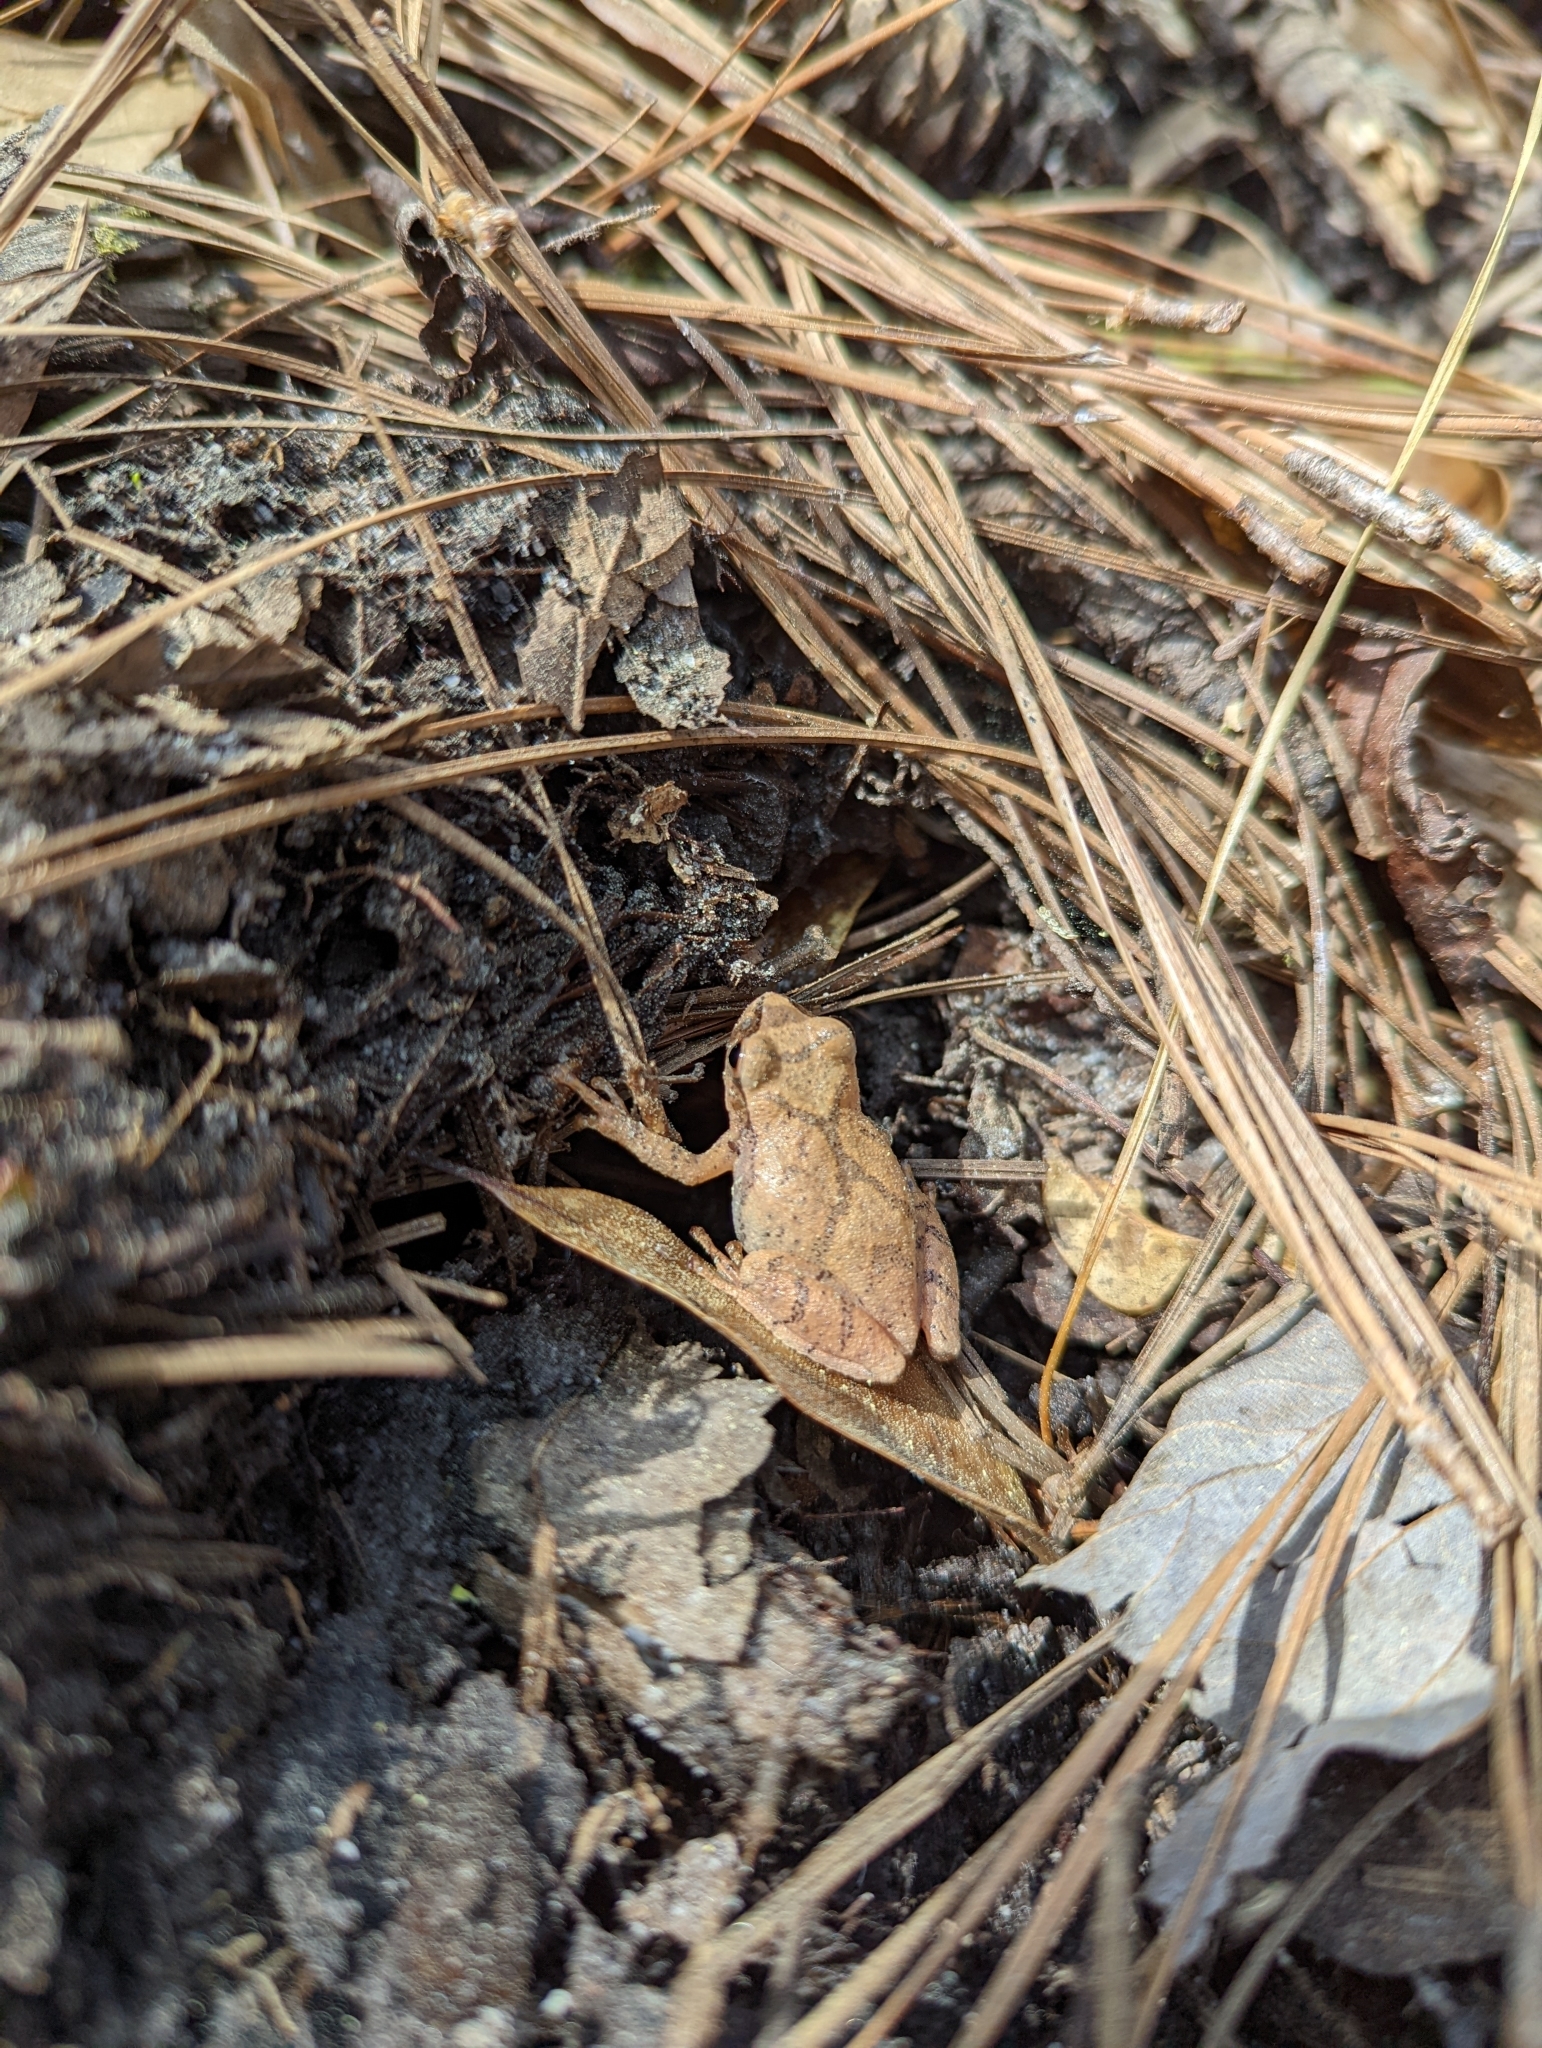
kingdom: Animalia
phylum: Chordata
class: Amphibia
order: Anura
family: Hylidae
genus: Pseudacris
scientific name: Pseudacris crucifer
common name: Spring peeper
